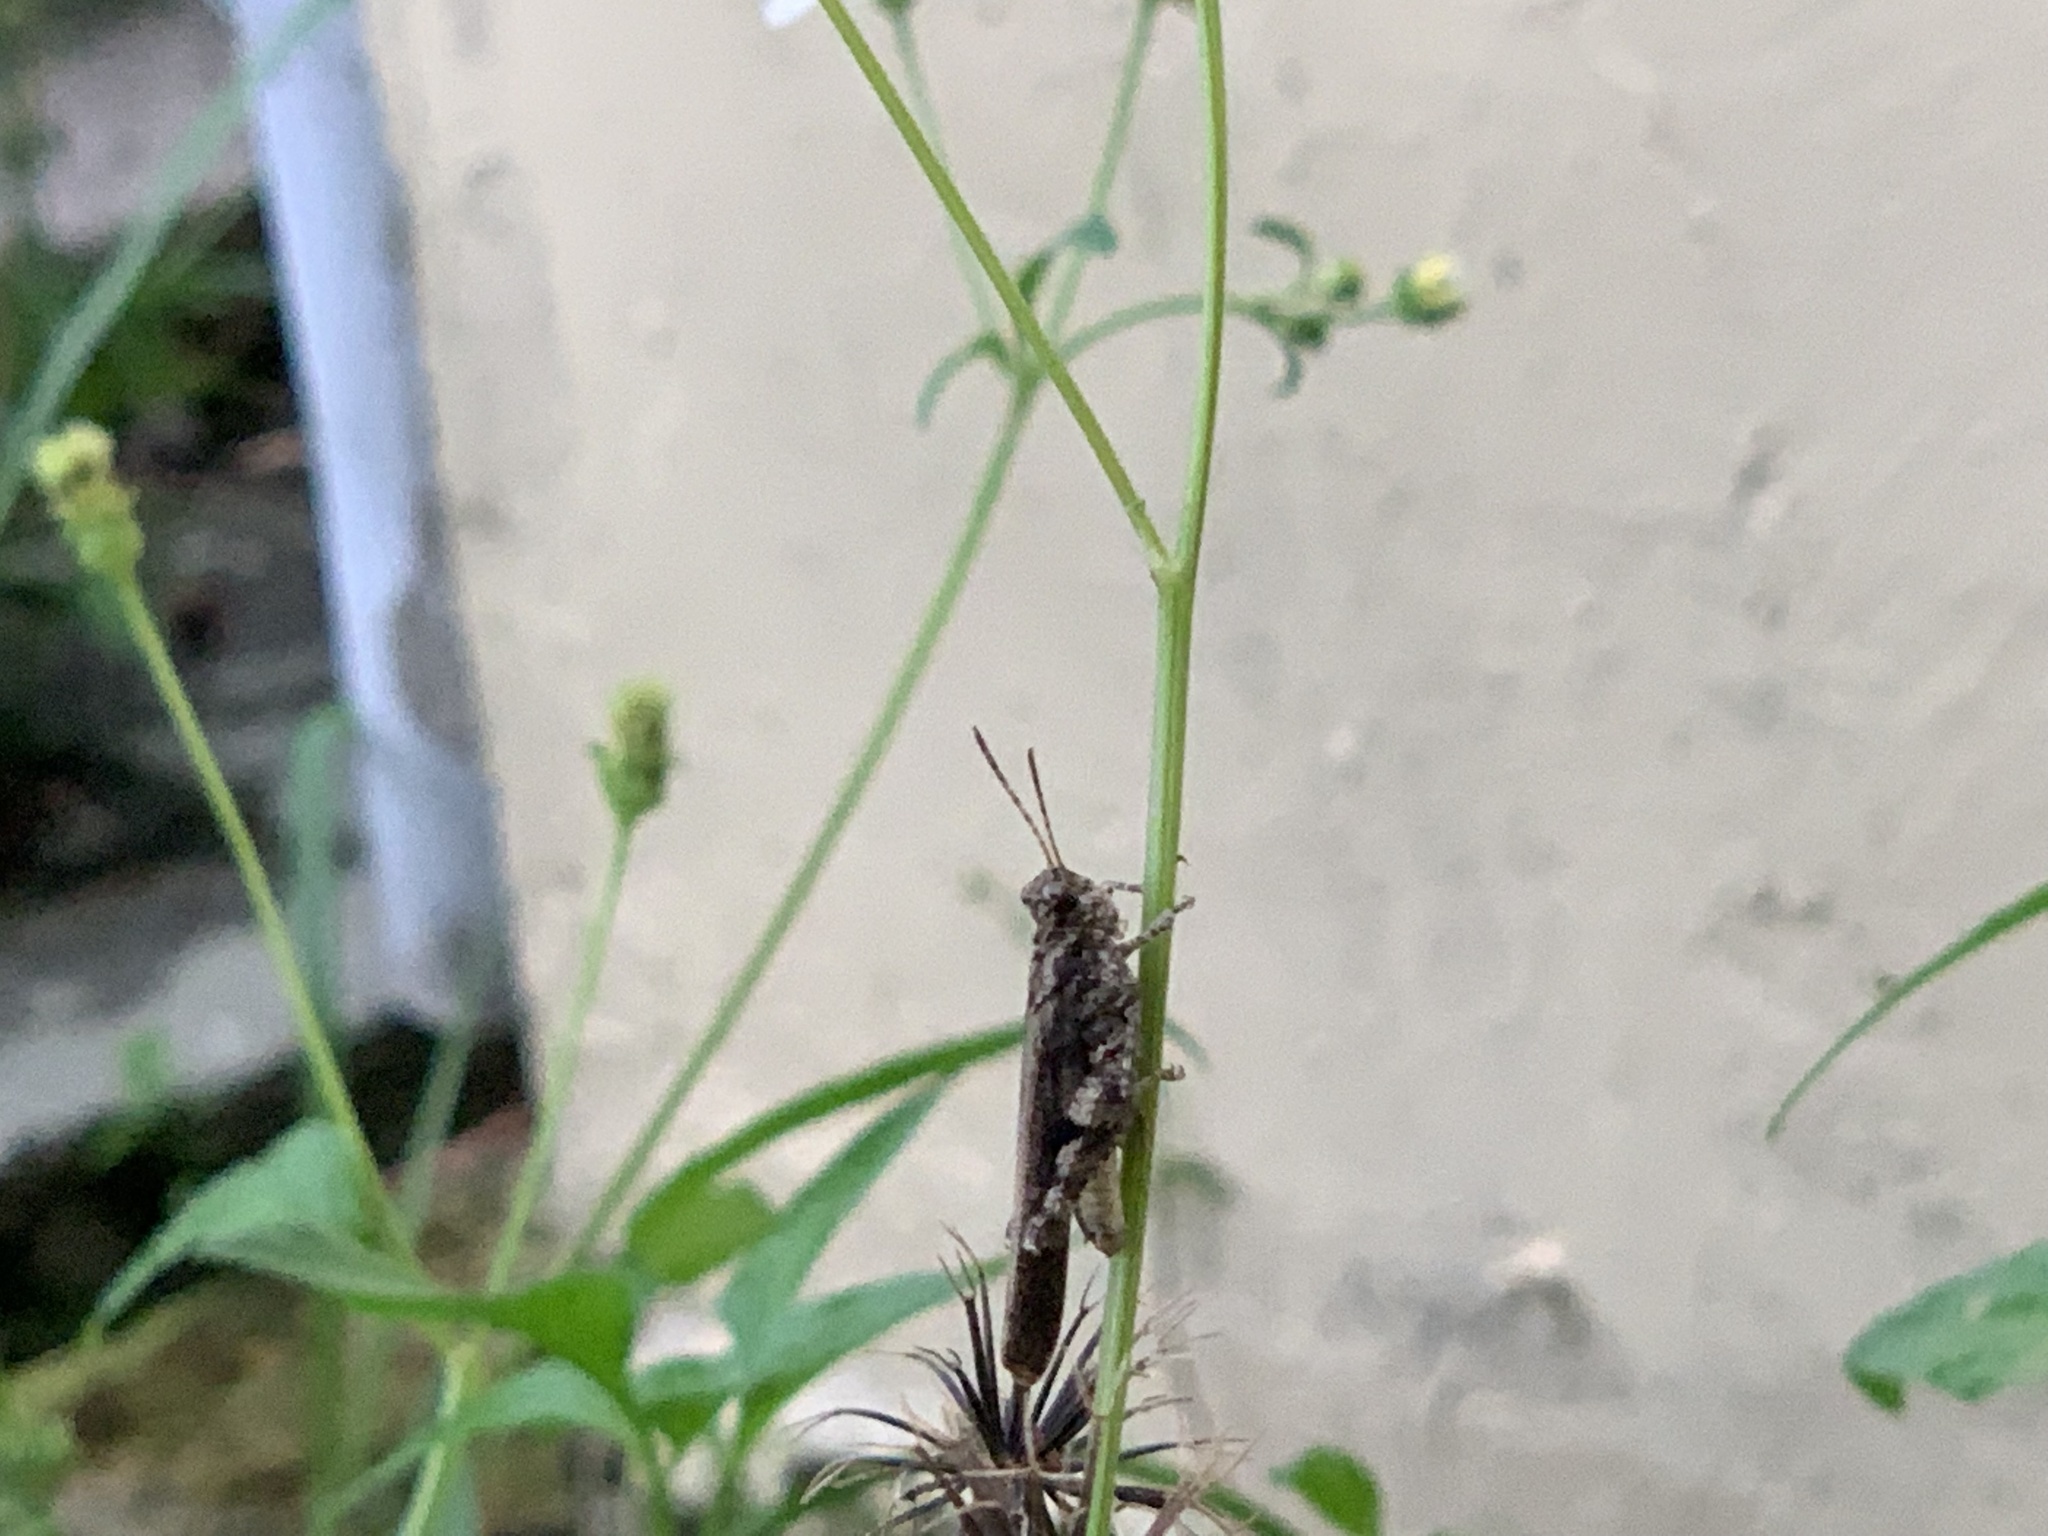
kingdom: Animalia
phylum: Arthropoda
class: Insecta
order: Orthoptera
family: Acrididae
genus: Trilophidia
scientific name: Trilophidia annulata
